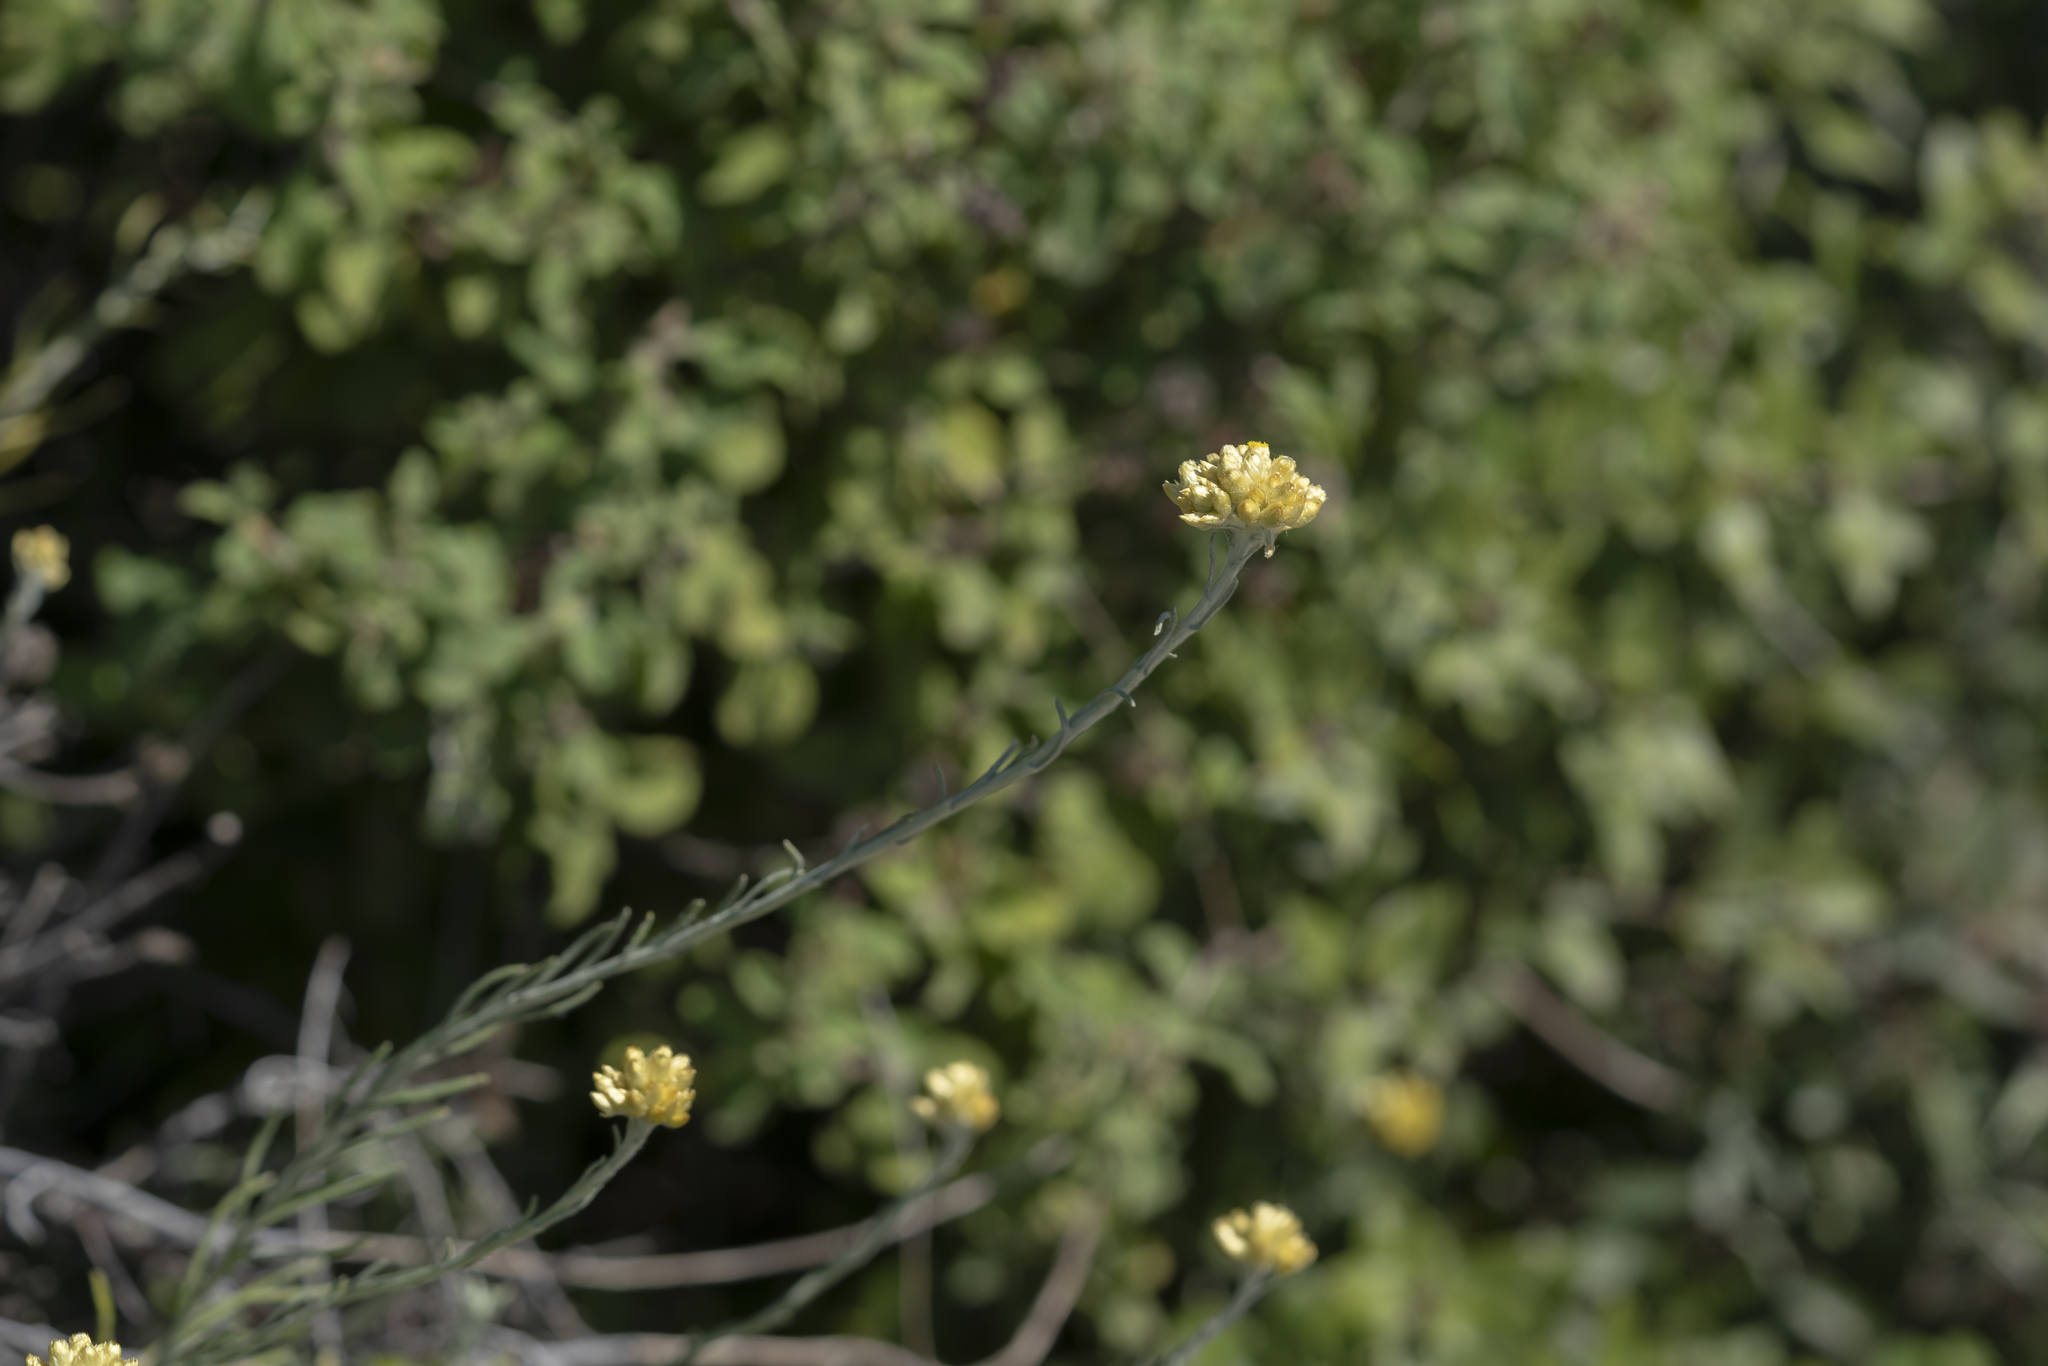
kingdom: Plantae
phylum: Tracheophyta
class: Magnoliopsida
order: Asterales
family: Asteraceae
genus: Helichrysum
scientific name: Helichrysum stoechas
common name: Goldilocks
